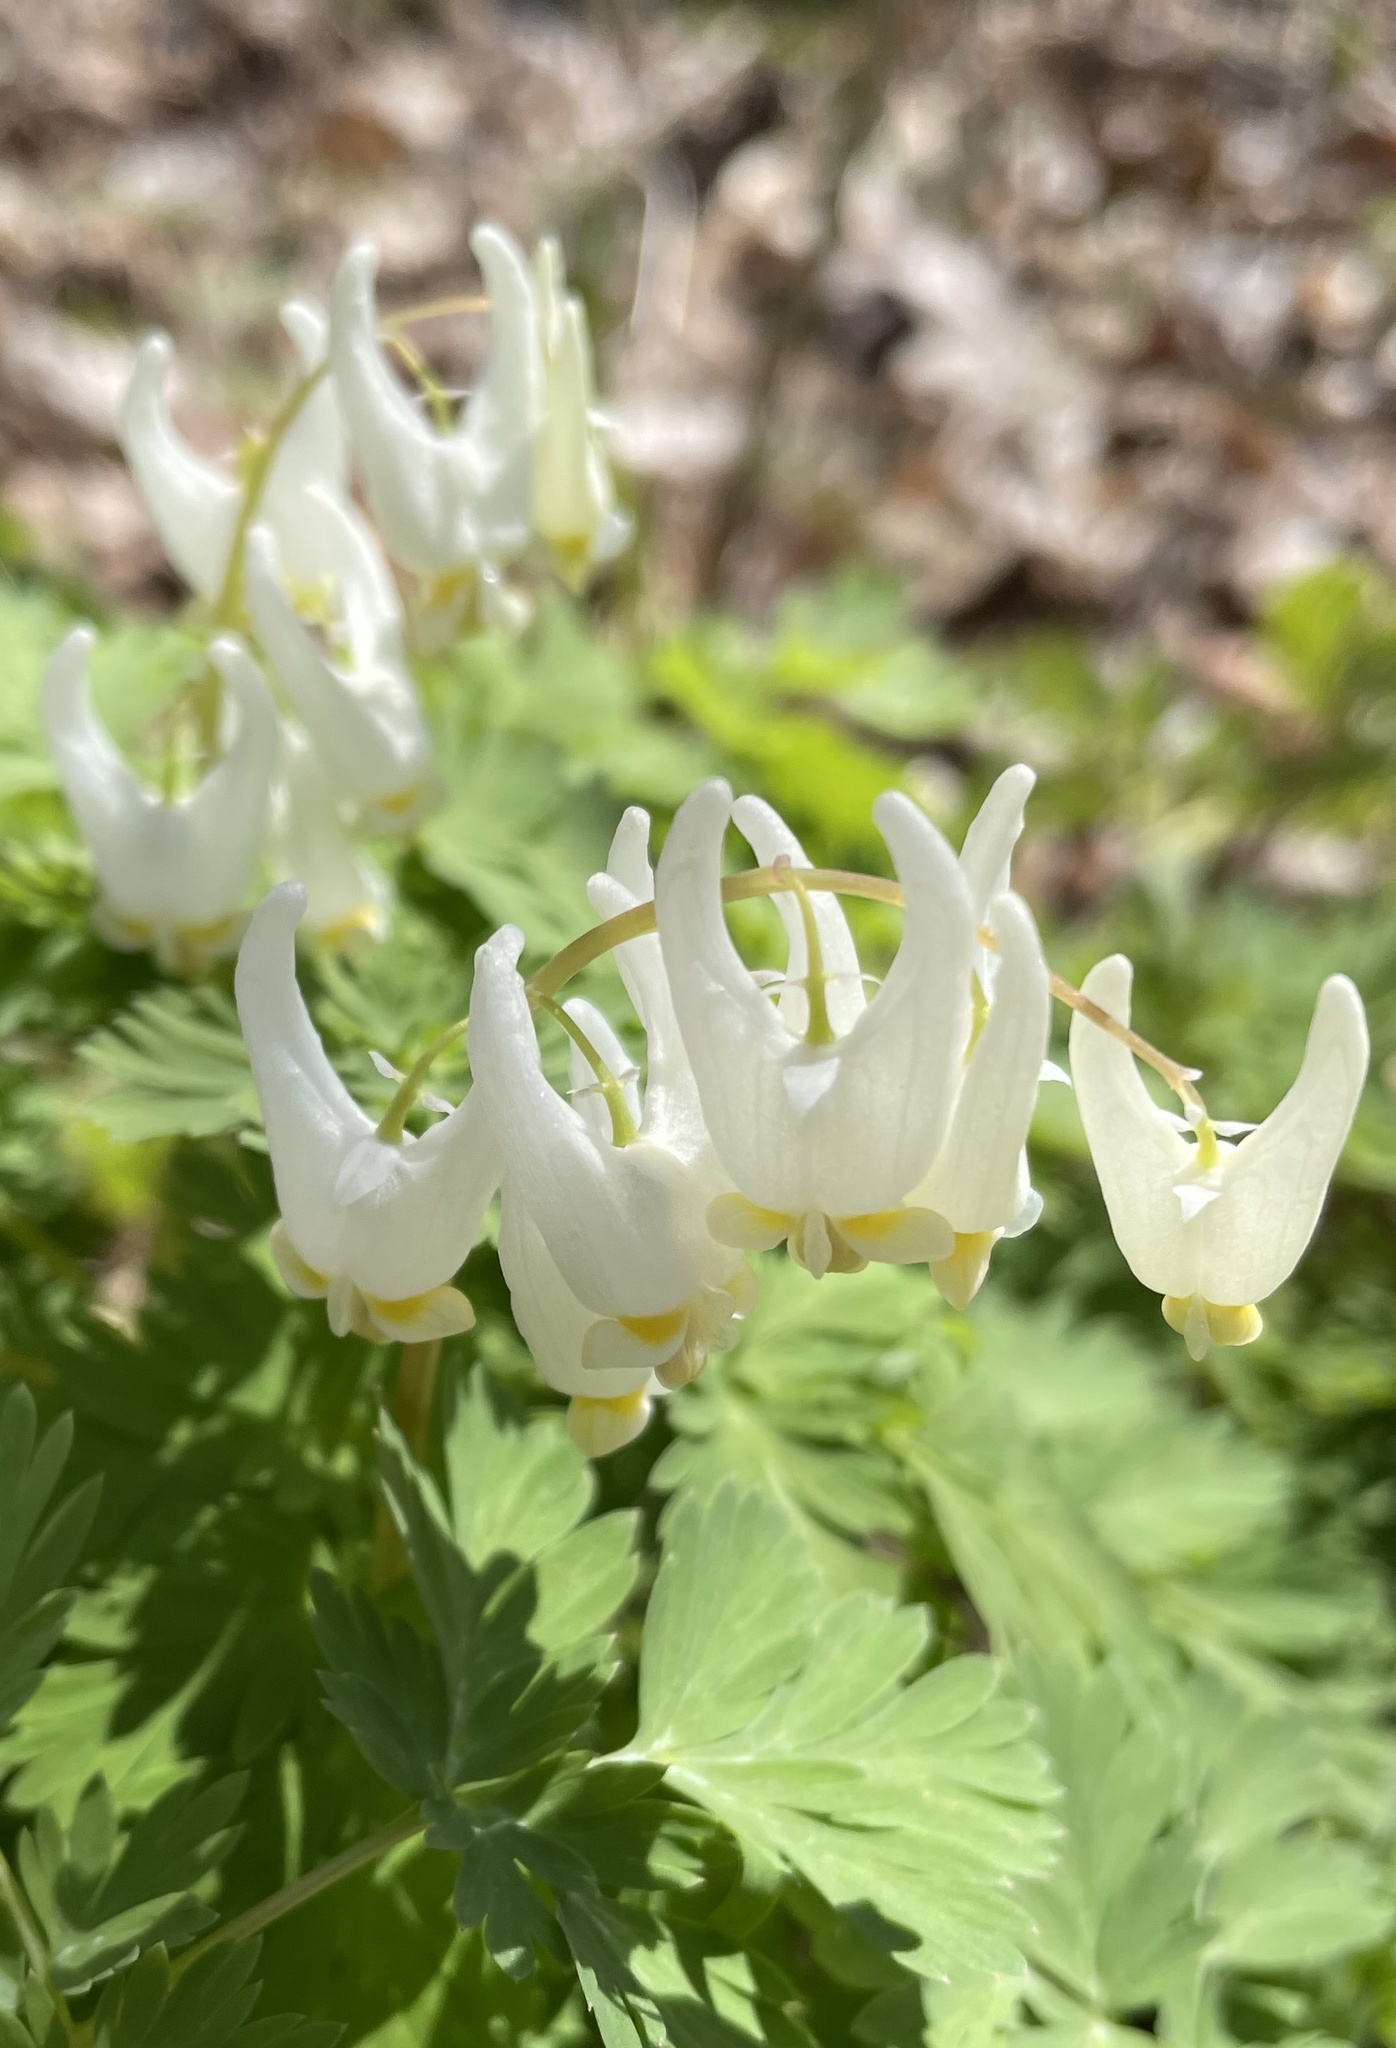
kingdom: Plantae
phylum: Tracheophyta
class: Magnoliopsida
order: Ranunculales
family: Papaveraceae
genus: Dicentra
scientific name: Dicentra cucullaria
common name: Dutchman's breeches
